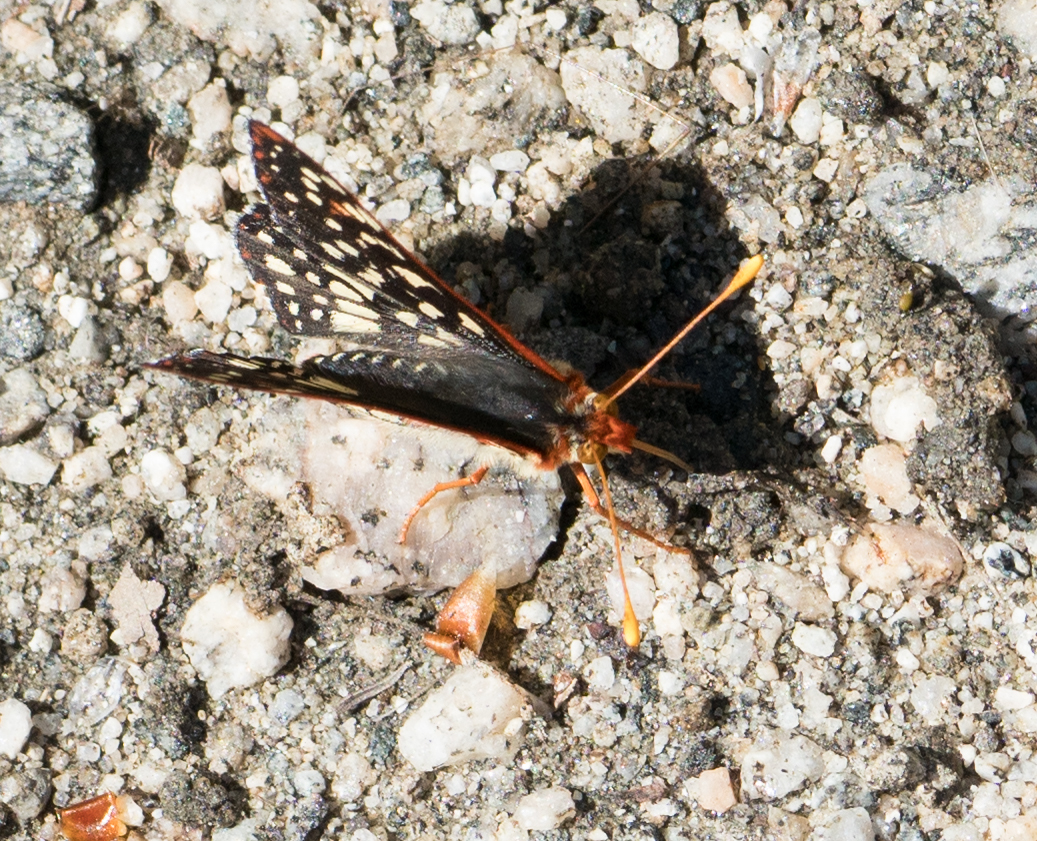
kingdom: Animalia
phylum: Arthropoda
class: Insecta
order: Lepidoptera
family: Nymphalidae
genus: Occidryas
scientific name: Occidryas chalcedona
